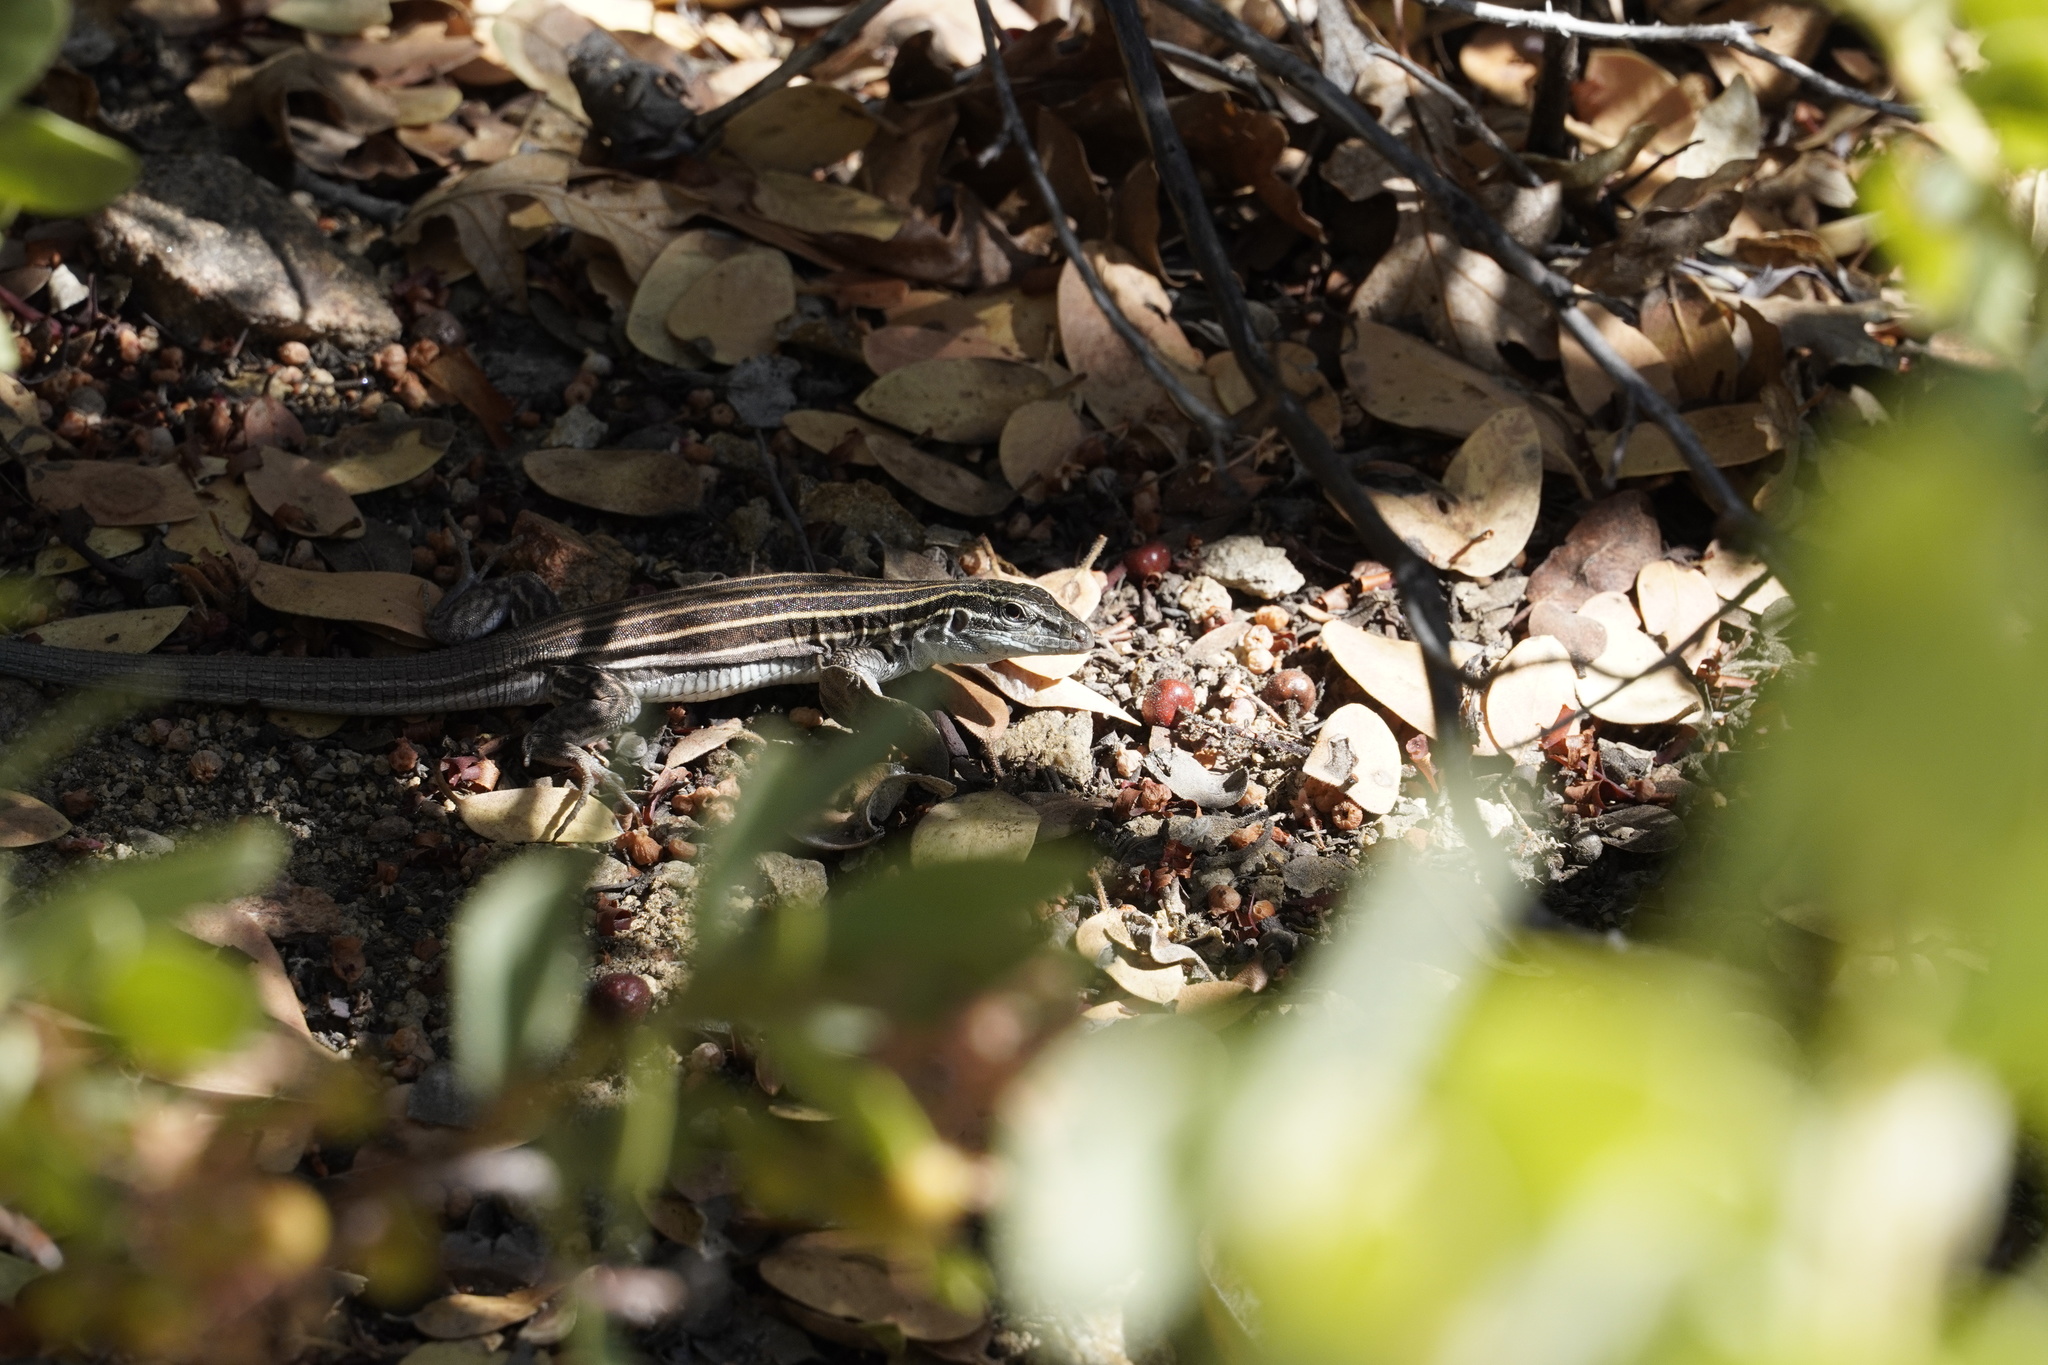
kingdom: Animalia
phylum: Chordata
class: Squamata
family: Teiidae
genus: Aspidoscelis
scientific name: Aspidoscelis velox
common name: Plateau striped whiptail
